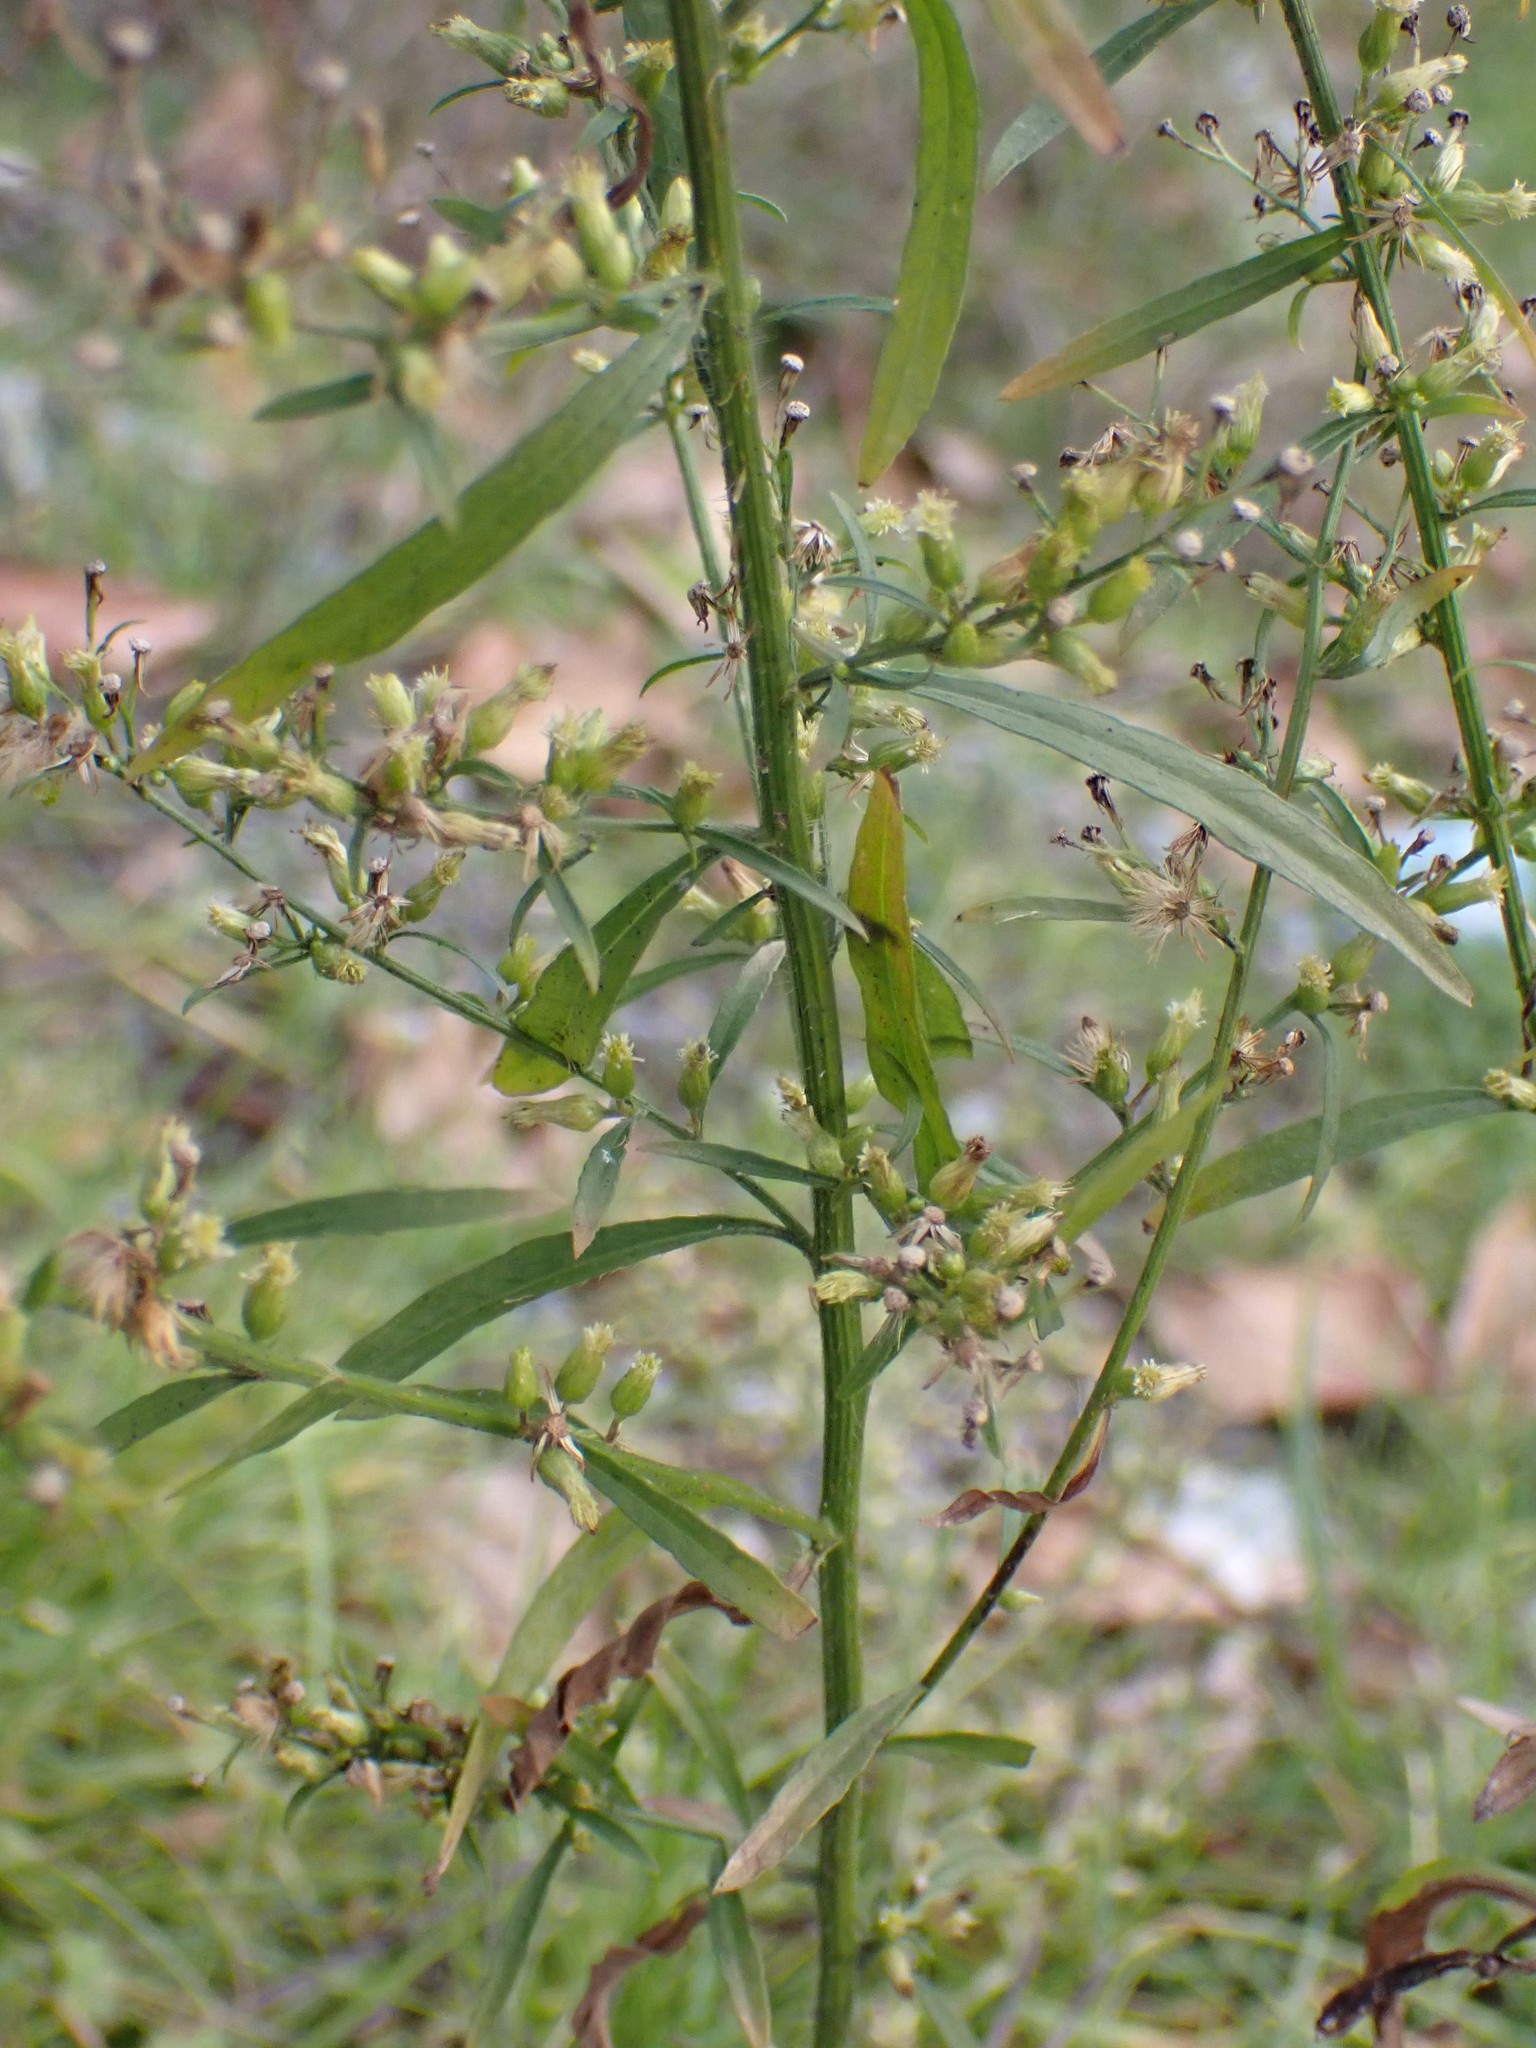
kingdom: Plantae
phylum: Tracheophyta
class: Magnoliopsida
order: Asterales
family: Asteraceae
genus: Erigeron
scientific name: Erigeron canadensis
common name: Canadian fleabane
